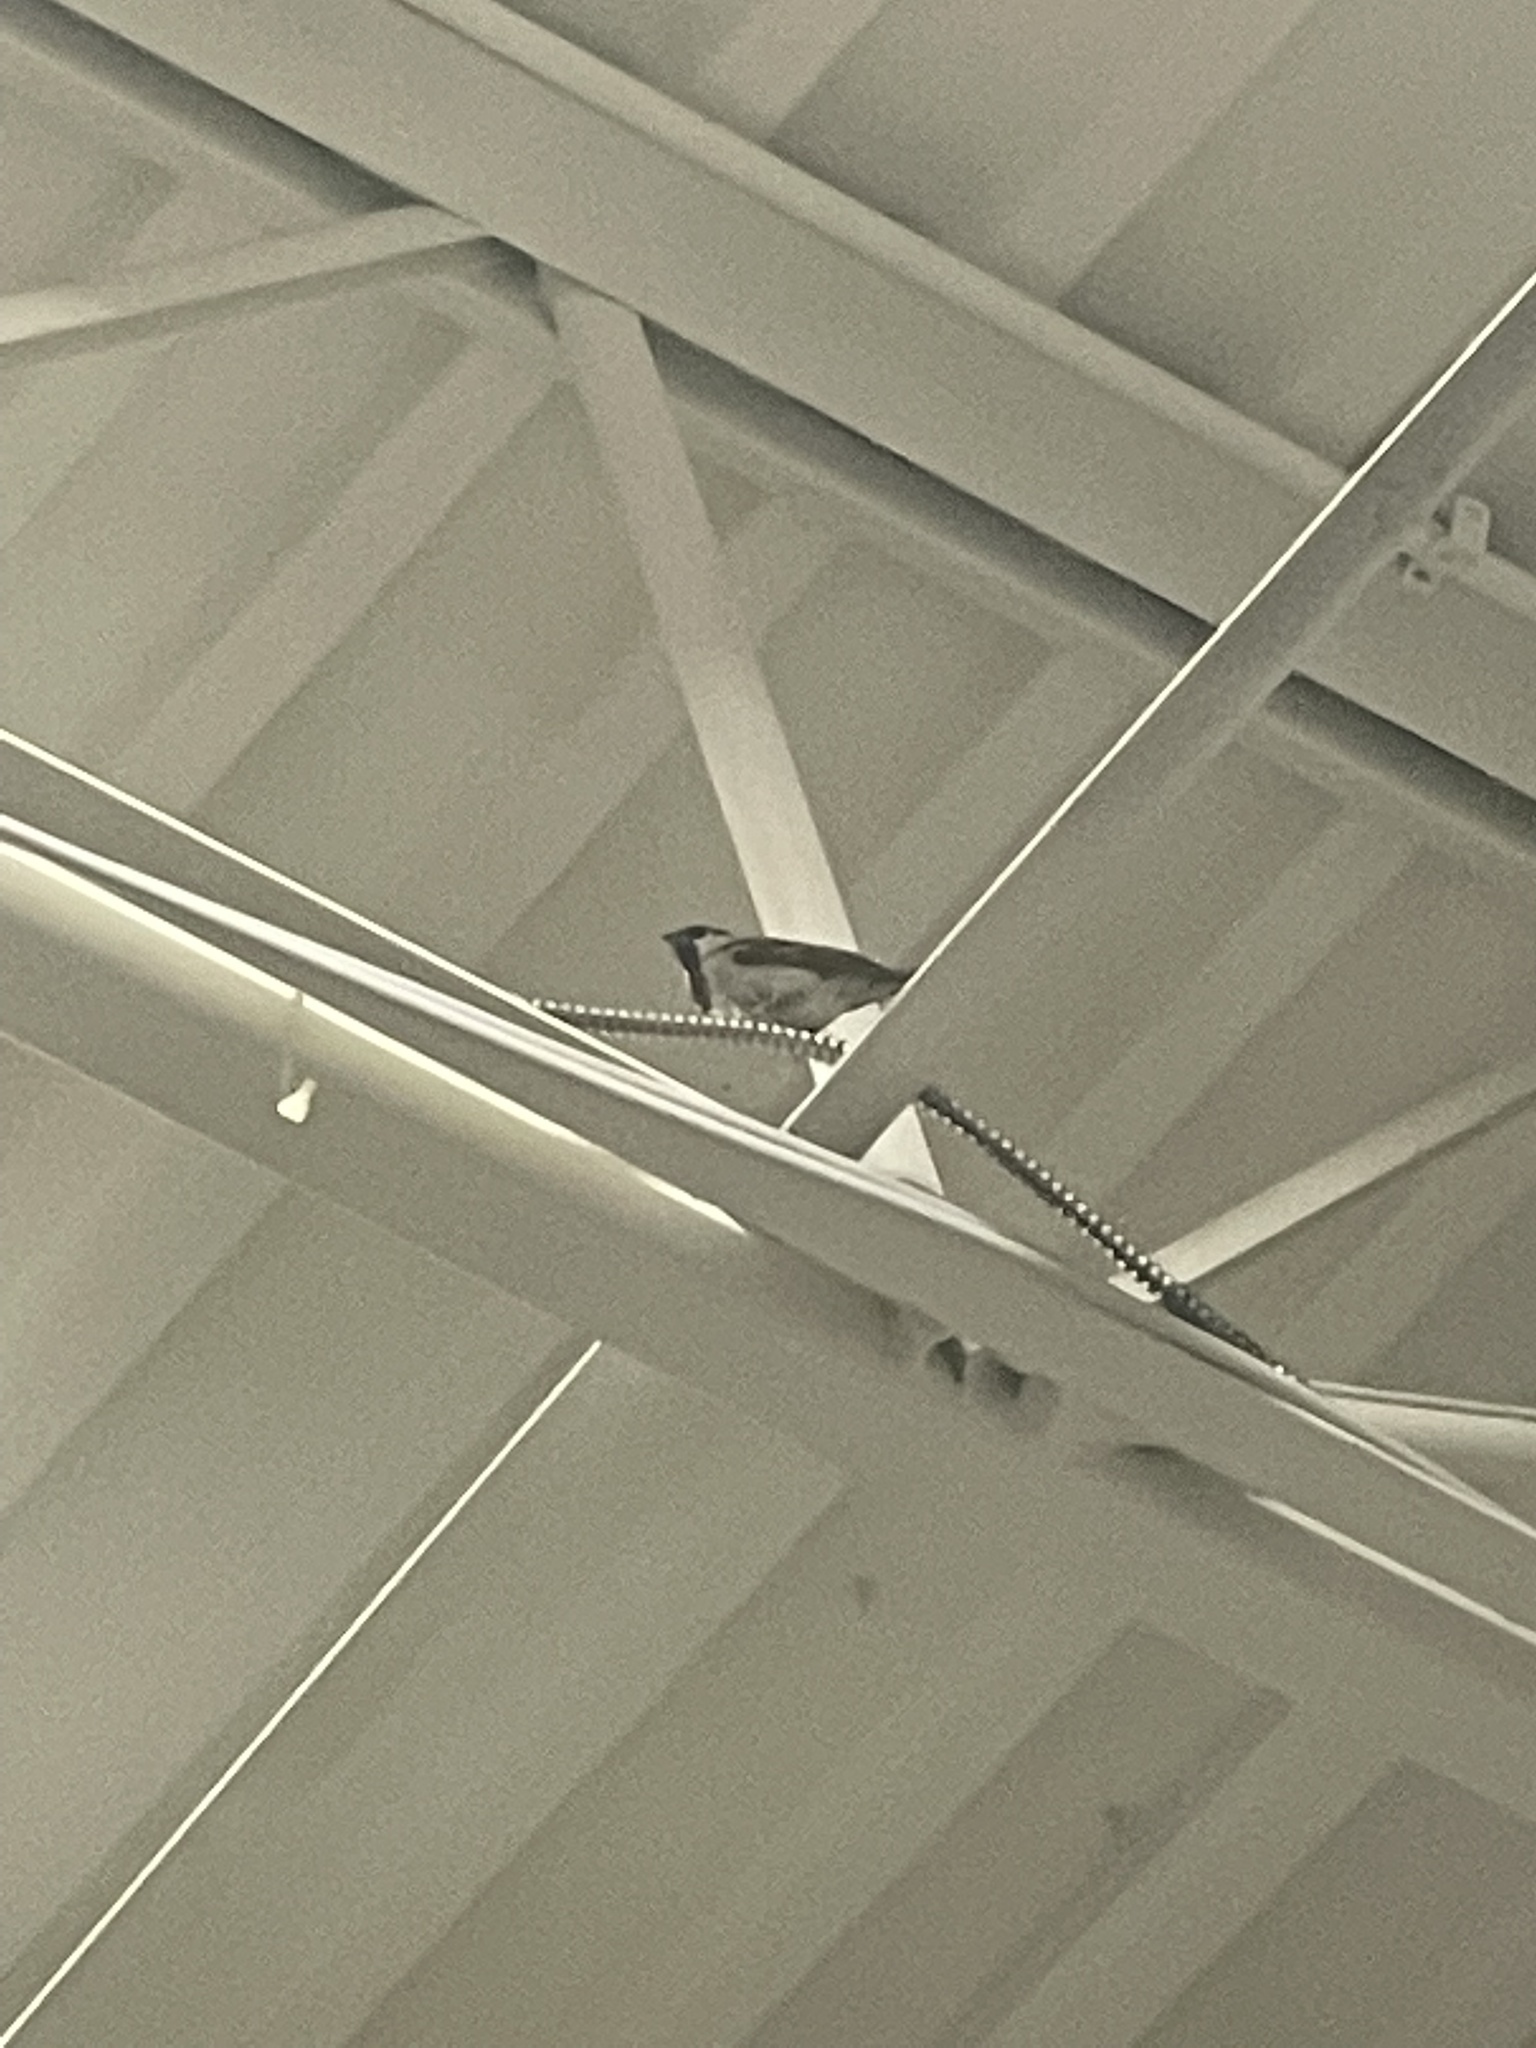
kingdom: Animalia
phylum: Chordata
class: Aves
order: Passeriformes
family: Passeridae
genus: Passer
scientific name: Passer domesticus
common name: House sparrow
